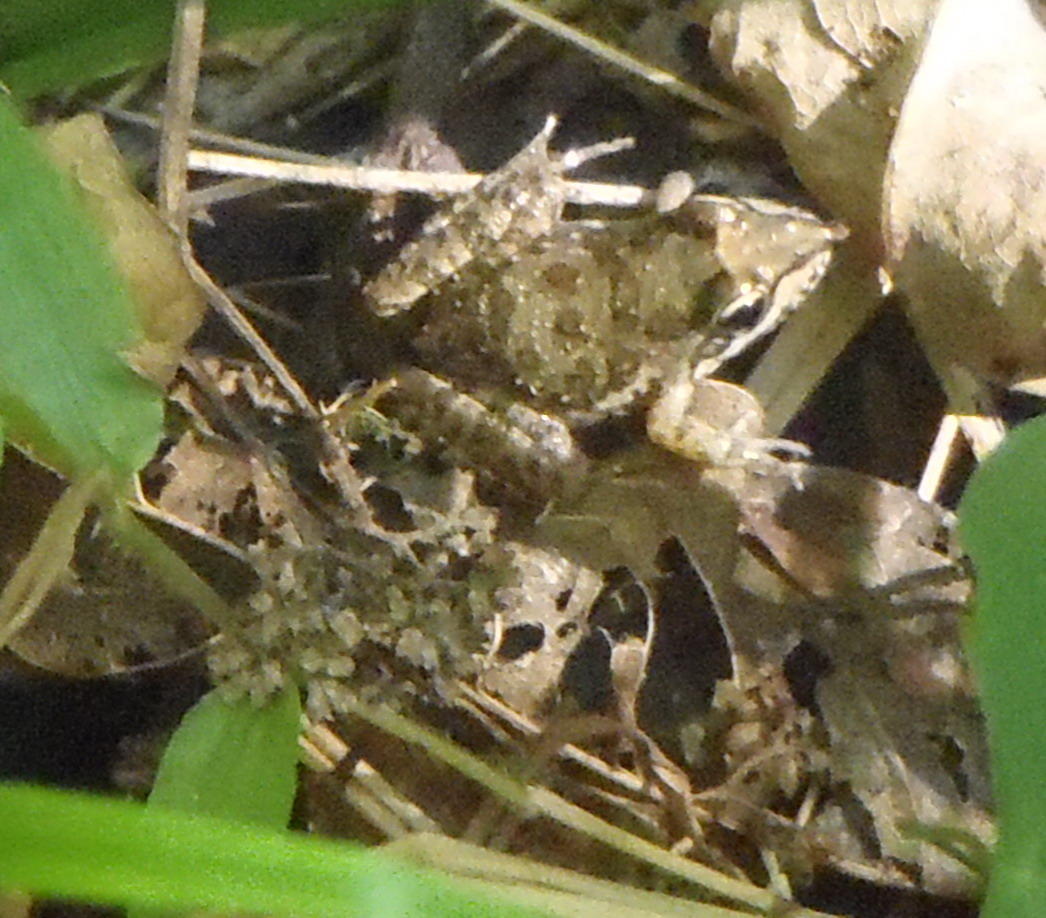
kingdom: Animalia
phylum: Chordata
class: Amphibia
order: Anura
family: Pyxicephalidae
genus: Amietia
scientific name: Amietia fuscigula
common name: Cape rana
